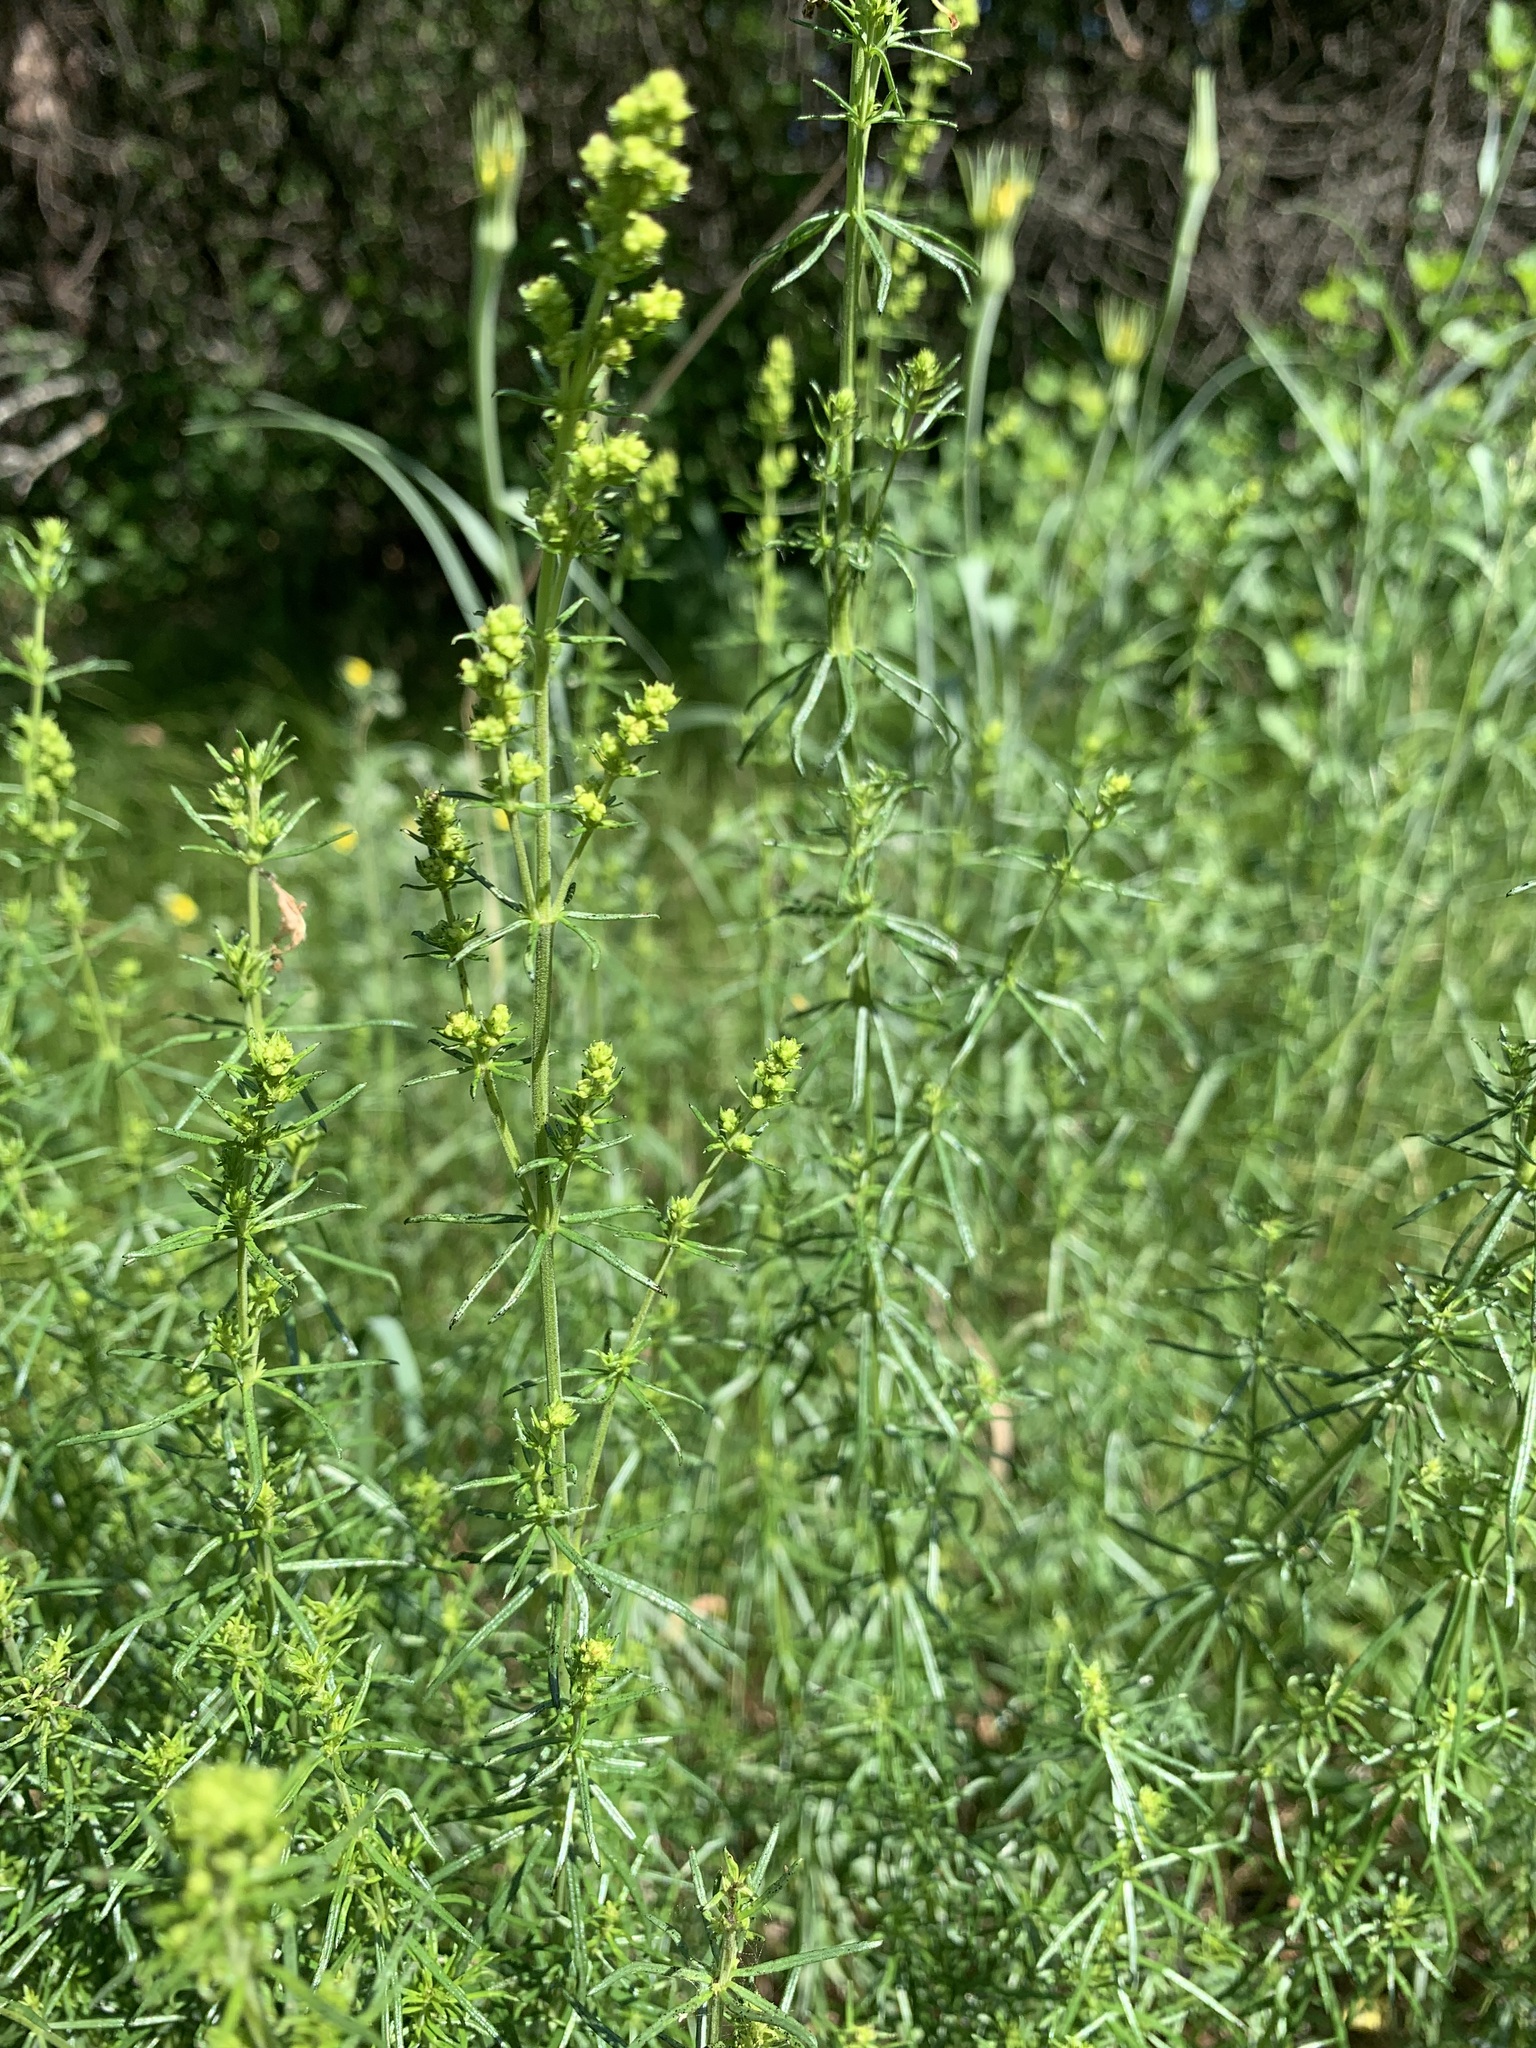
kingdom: Plantae
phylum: Tracheophyta
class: Magnoliopsida
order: Gentianales
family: Rubiaceae
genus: Galium
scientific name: Galium verum
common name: Lady's bedstraw
